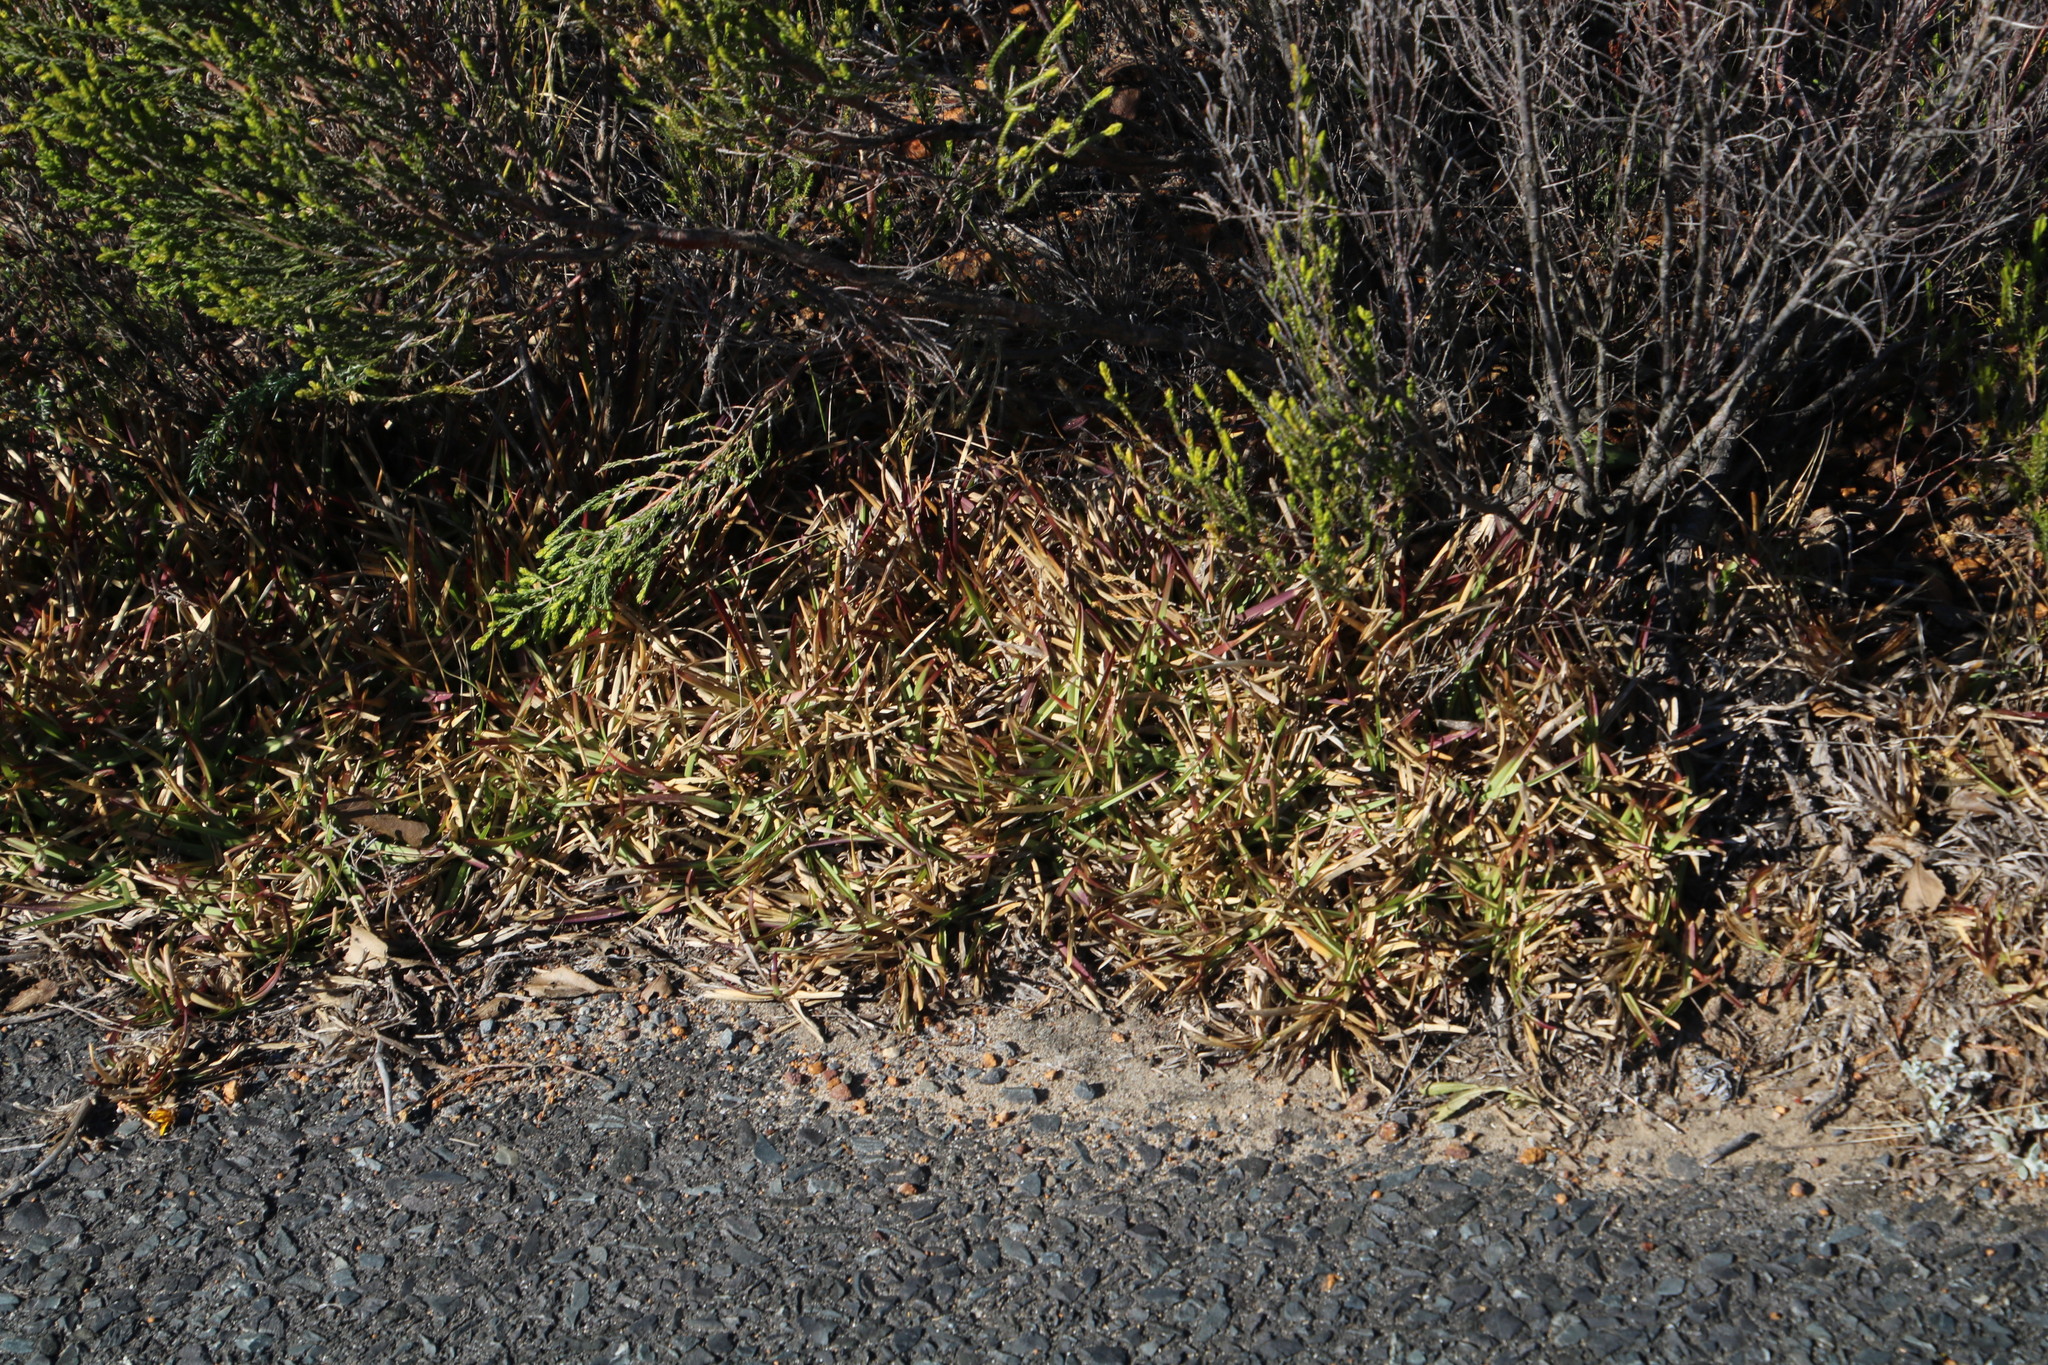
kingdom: Plantae
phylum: Tracheophyta
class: Liliopsida
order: Poales
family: Poaceae
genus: Stenotaphrum
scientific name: Stenotaphrum secundatum
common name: St. augustine grass
